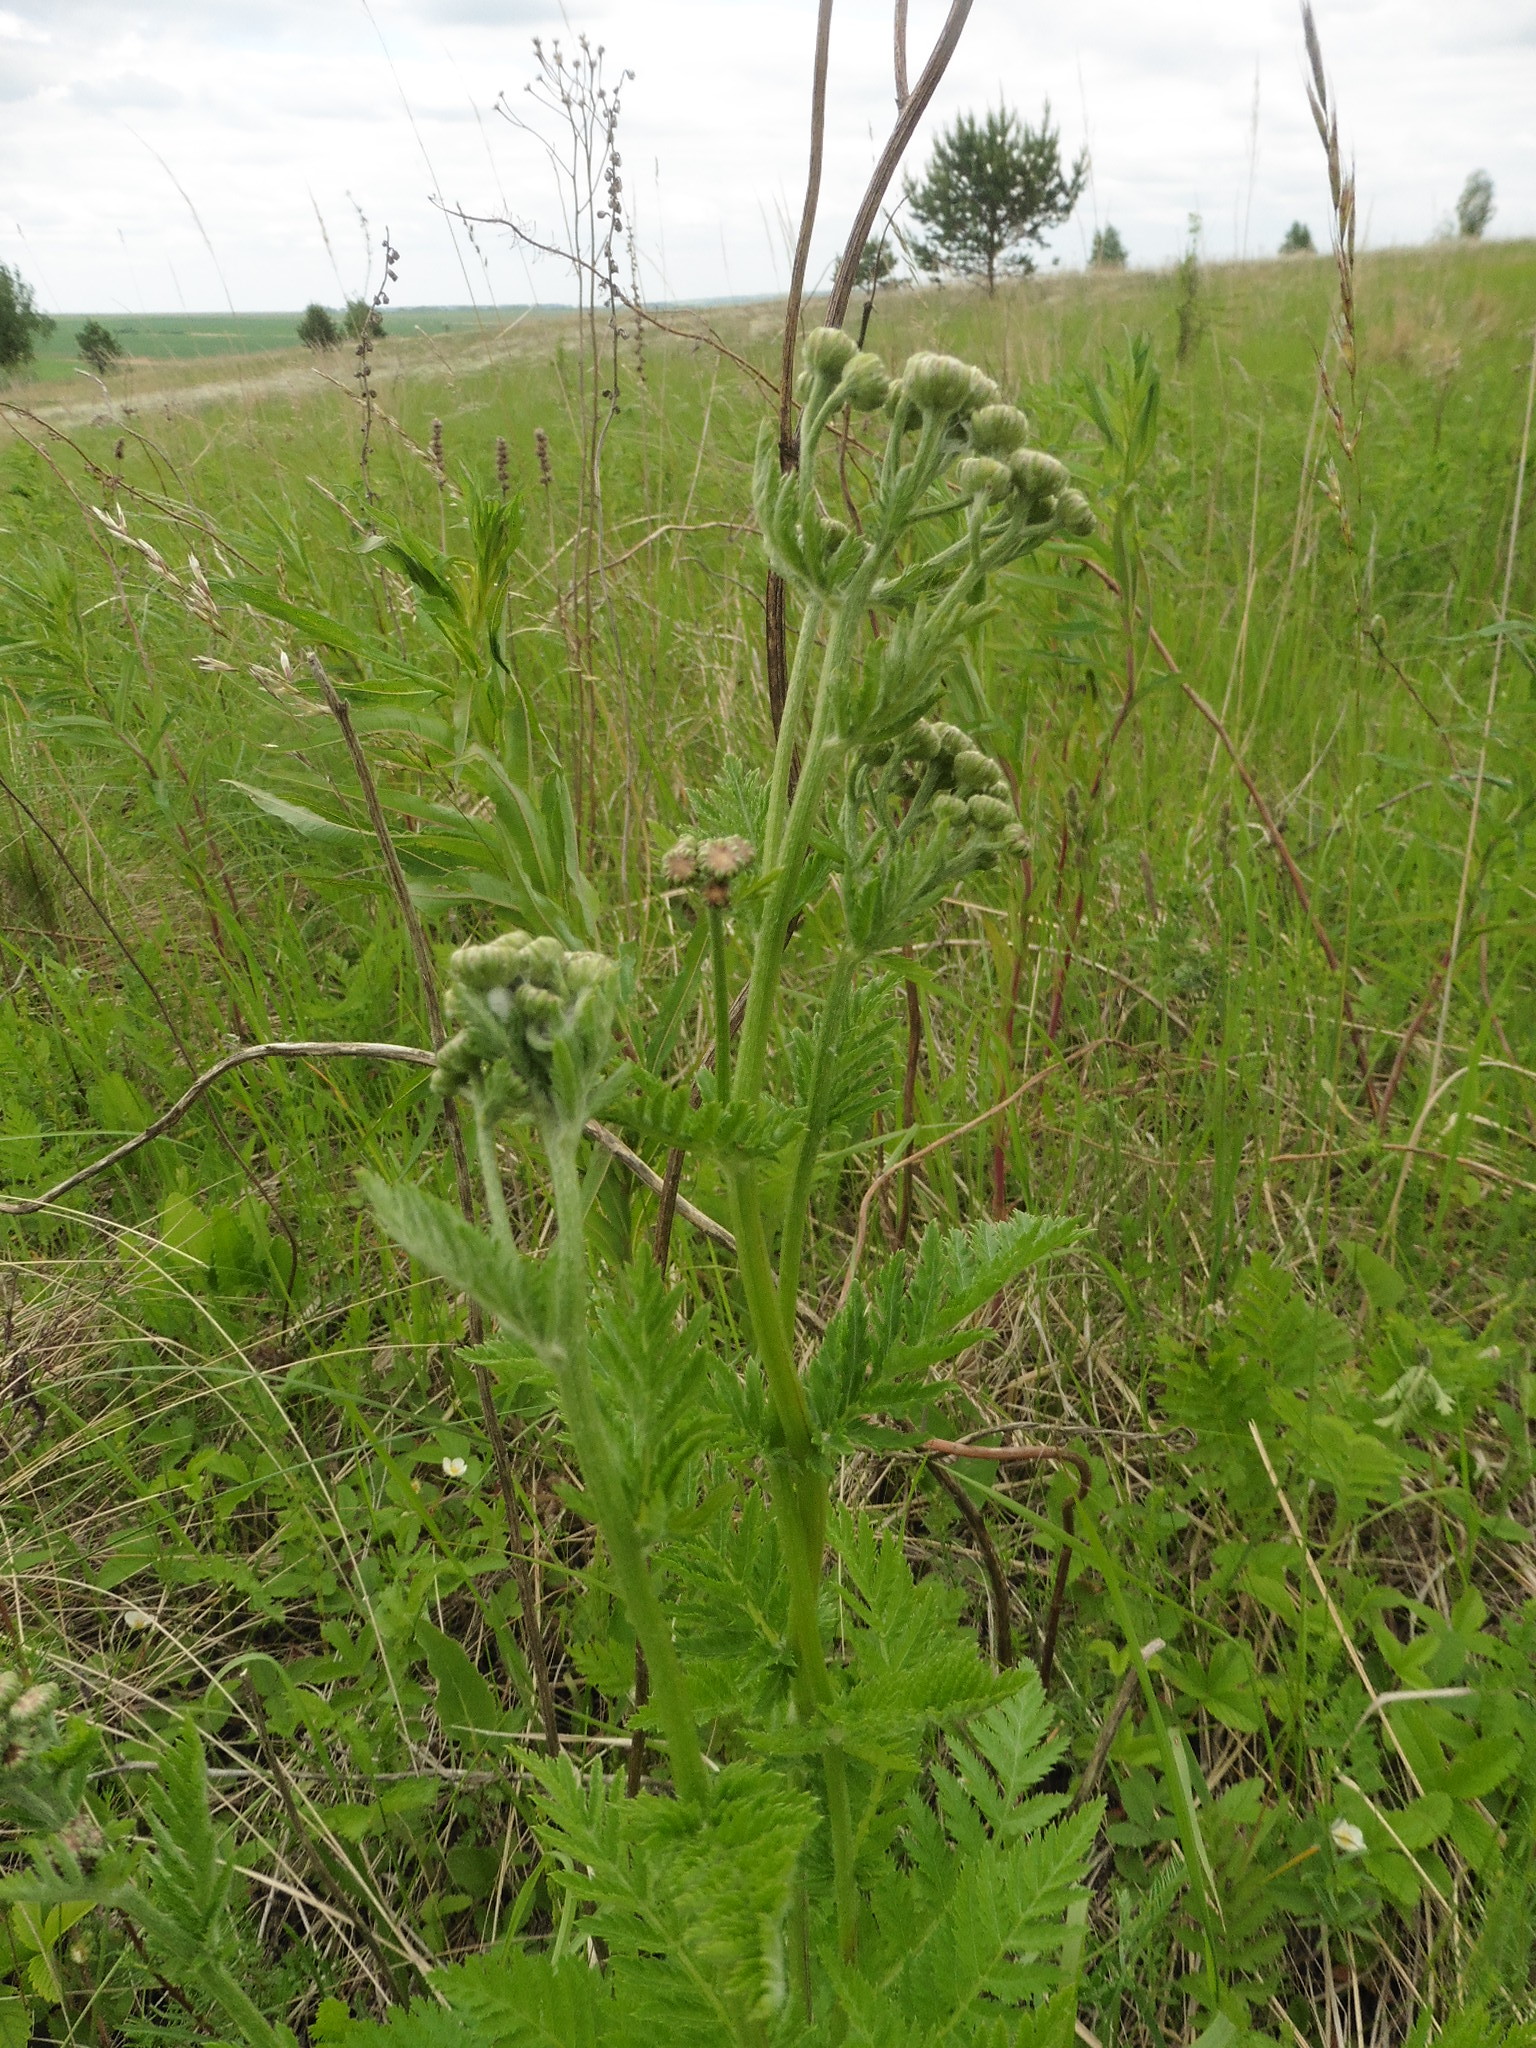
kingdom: Plantae
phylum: Tracheophyta
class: Magnoliopsida
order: Asterales
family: Asteraceae
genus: Tanacetum
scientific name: Tanacetum corymbosum
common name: Scentless feverfew
